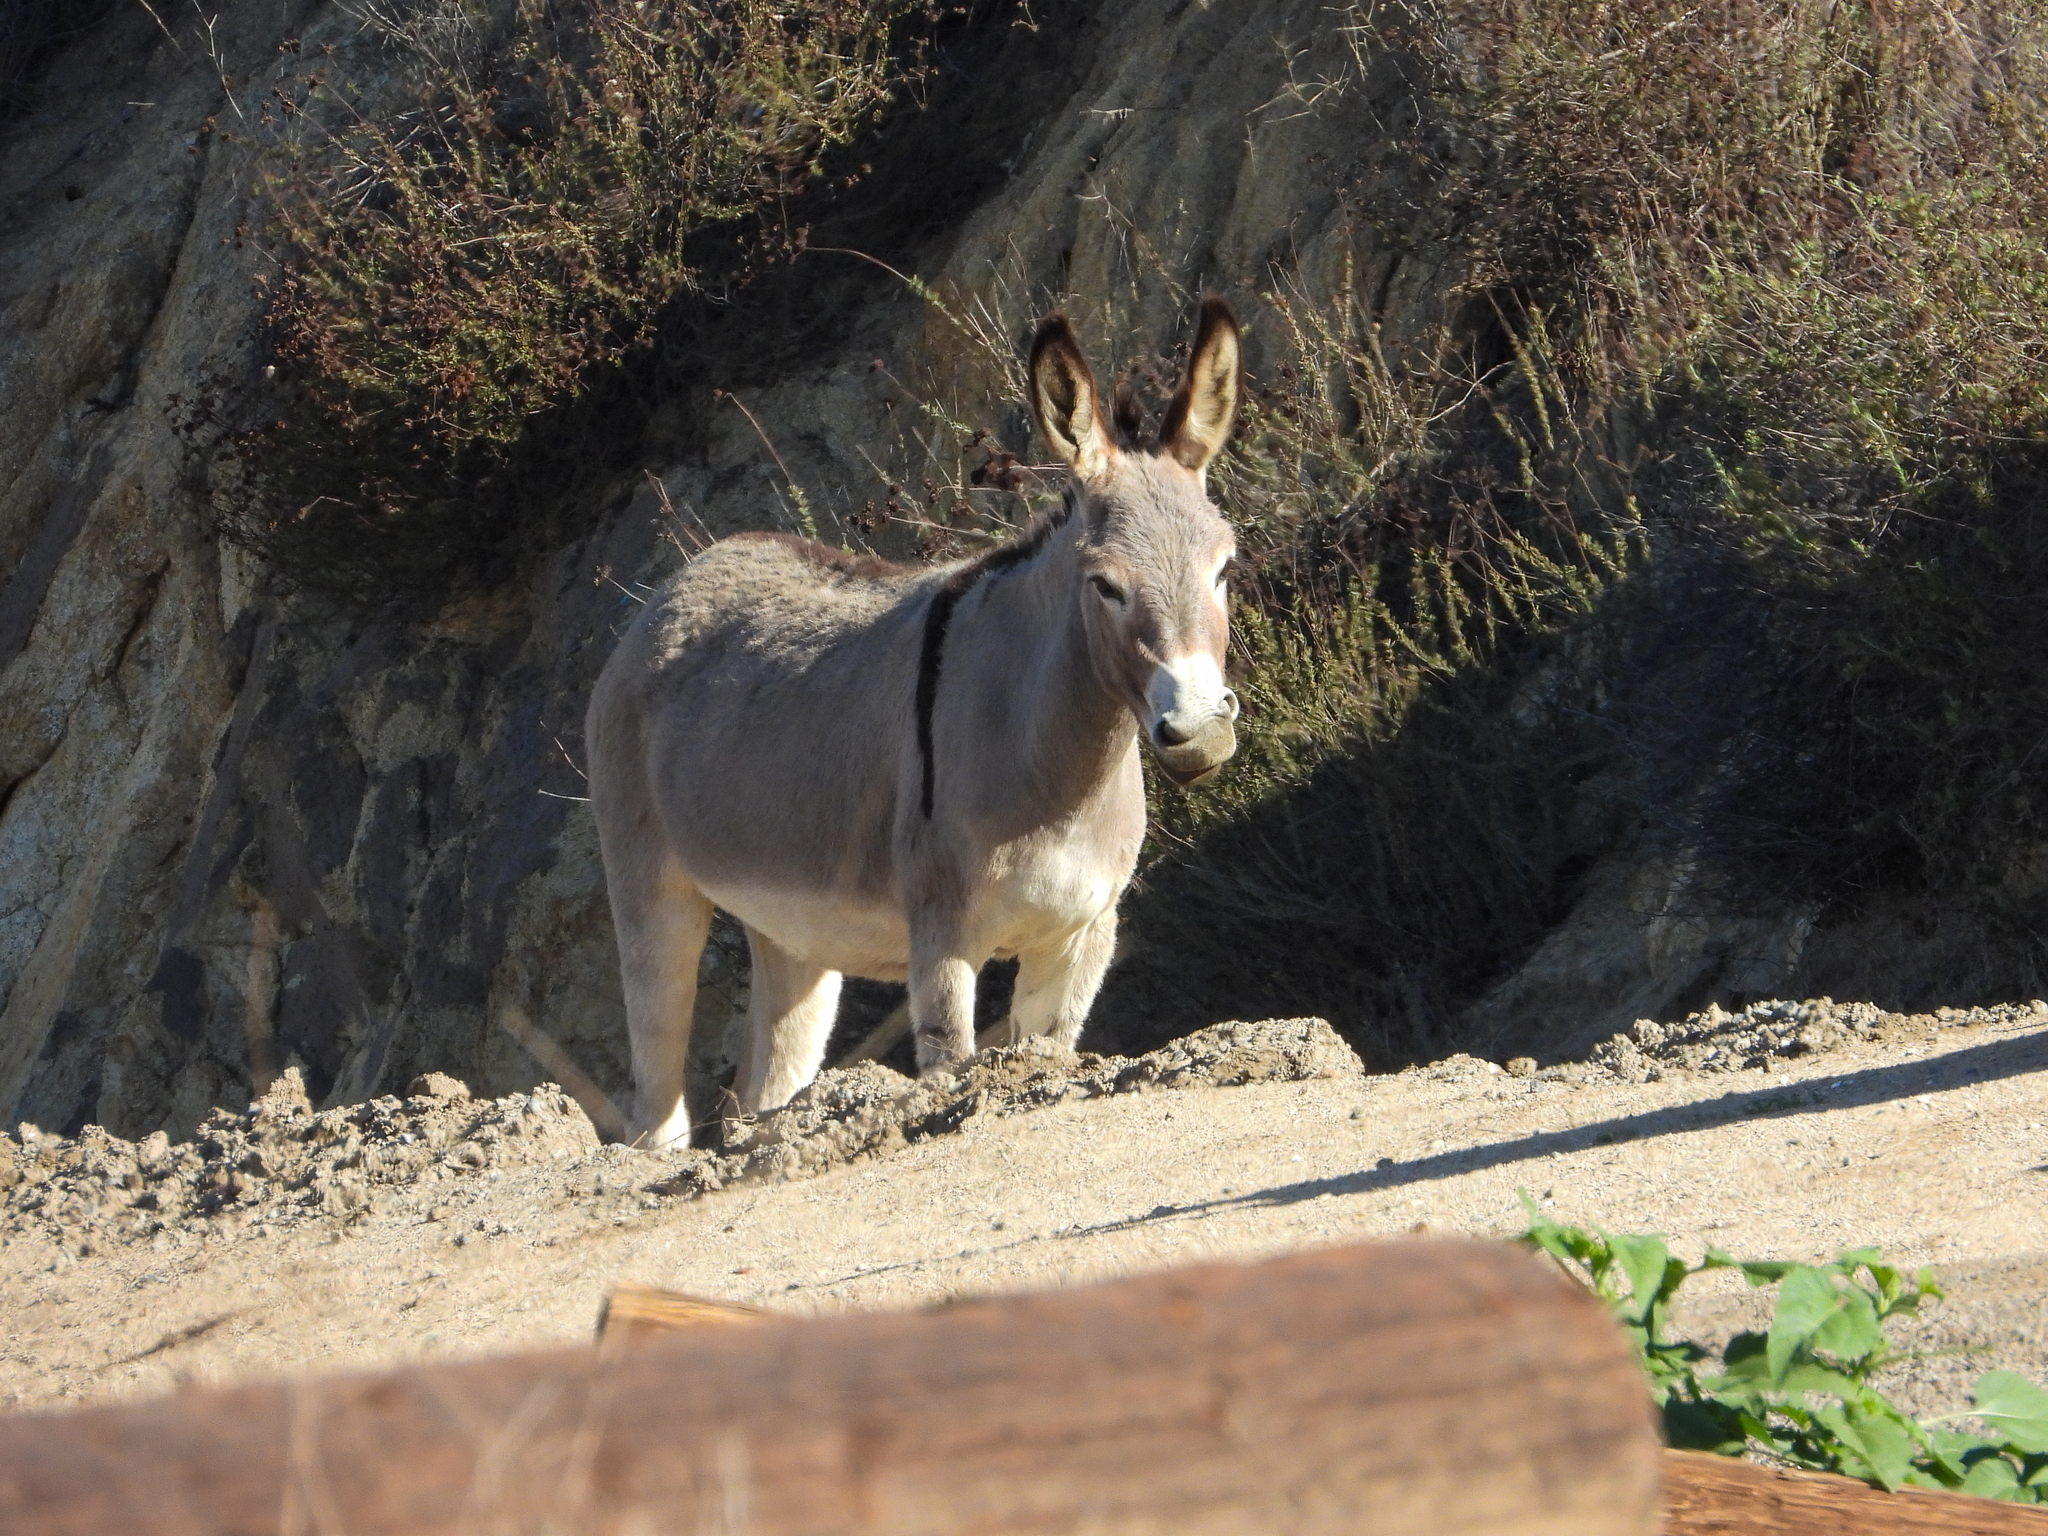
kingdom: Animalia
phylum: Chordata
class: Mammalia
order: Perissodactyla
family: Equidae
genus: Equus
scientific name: Equus asinus
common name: Ass
